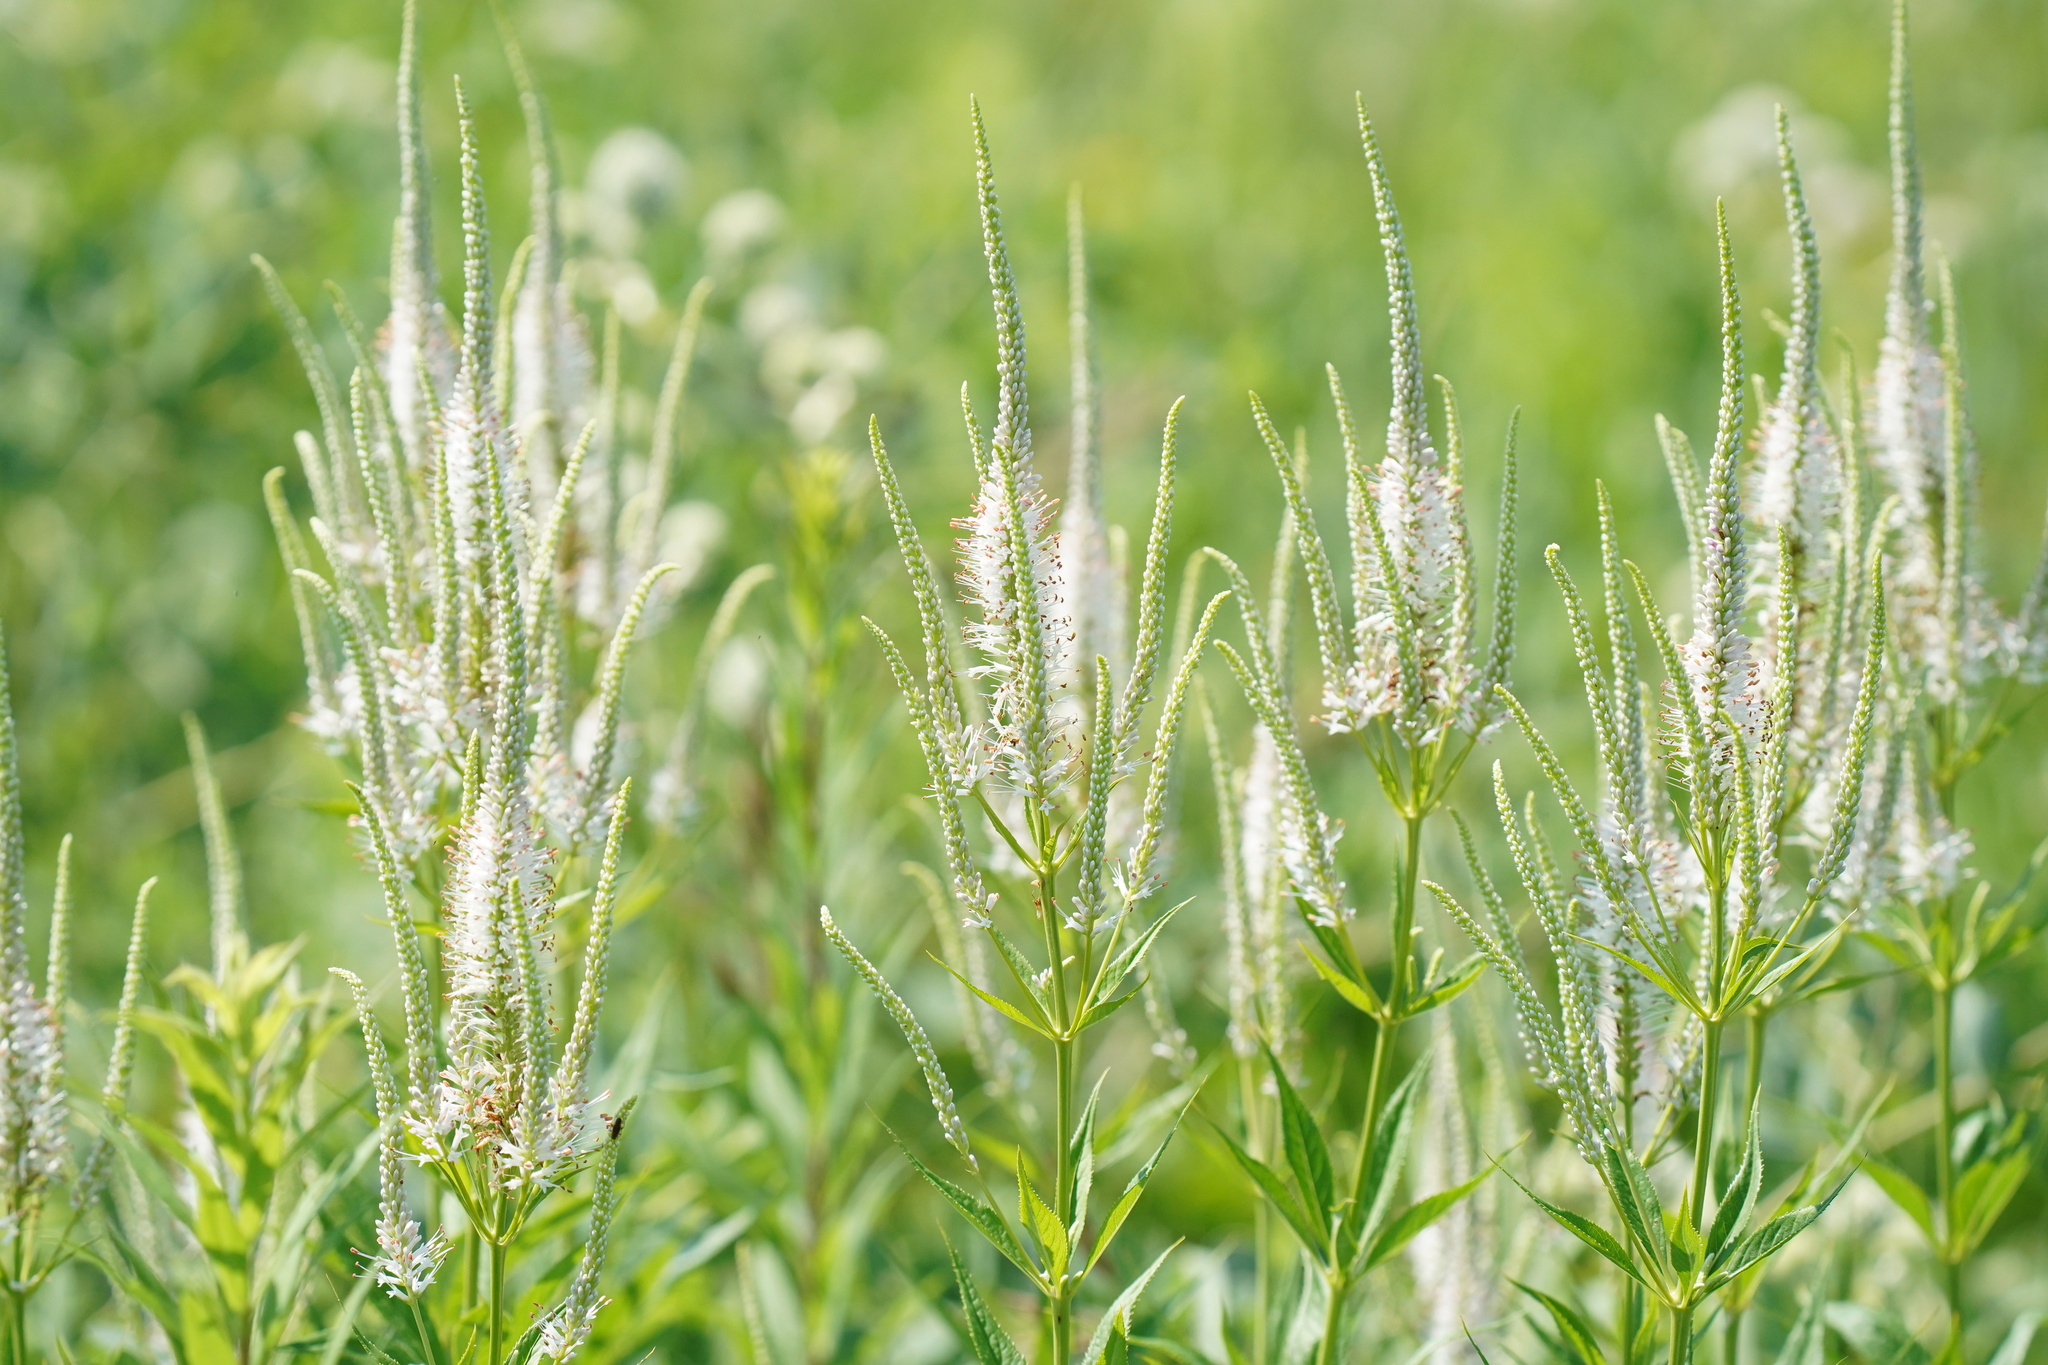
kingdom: Plantae
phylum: Tracheophyta
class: Magnoliopsida
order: Lamiales
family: Plantaginaceae
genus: Veronicastrum
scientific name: Veronicastrum virginicum
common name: Blackroot
